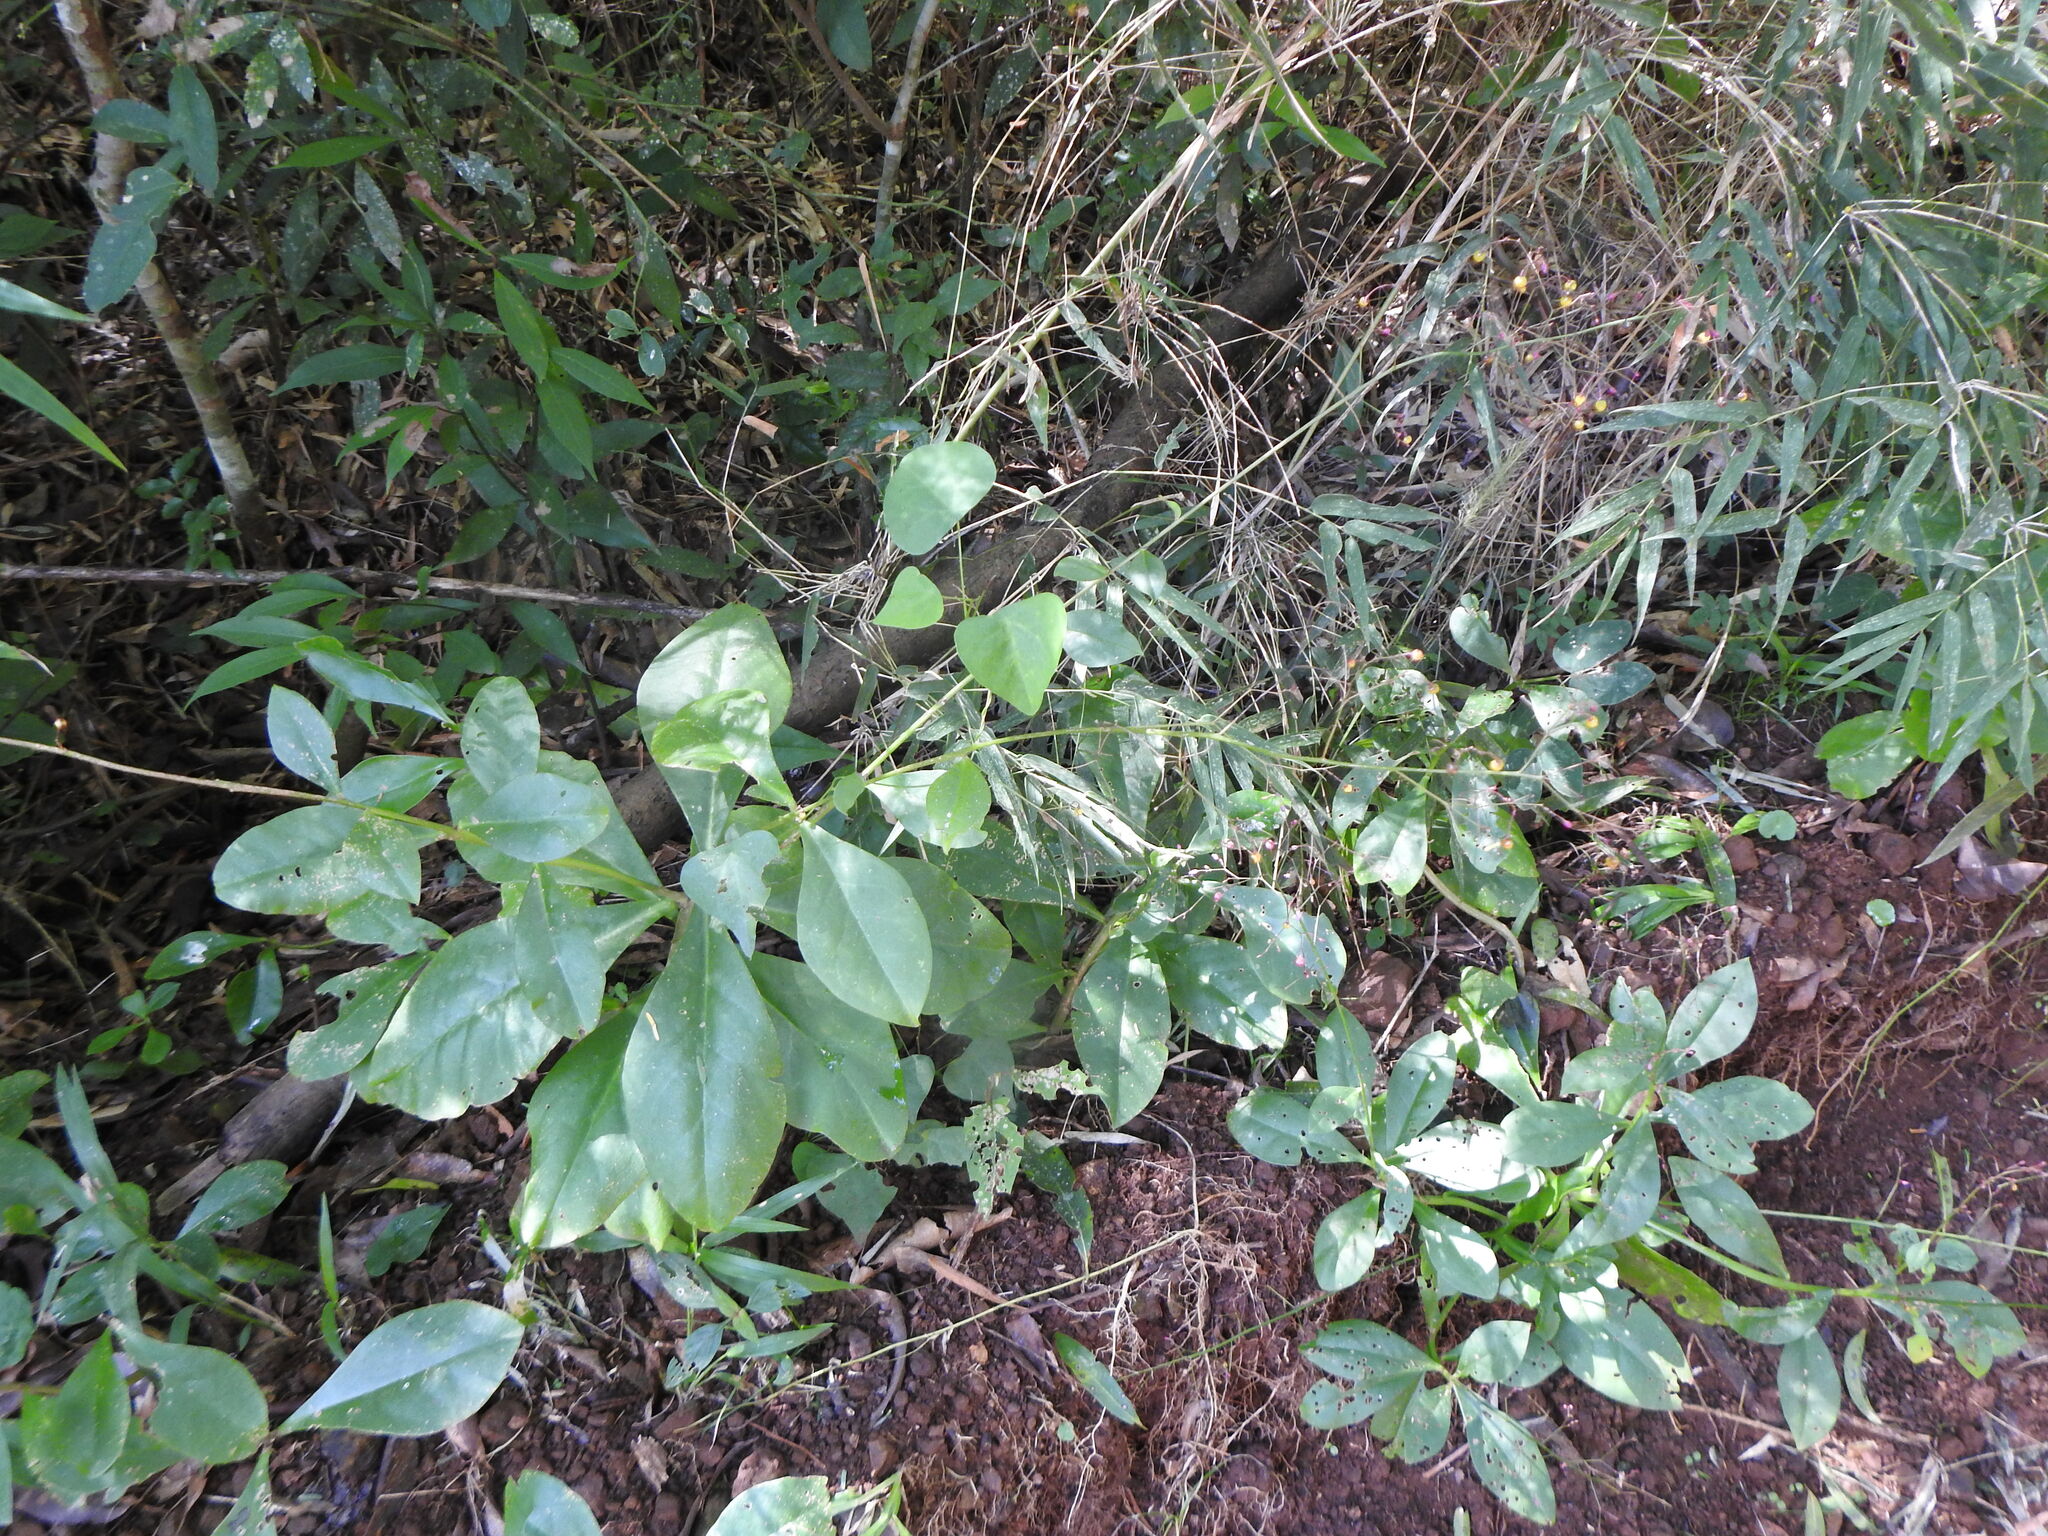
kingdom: Plantae
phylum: Tracheophyta
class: Magnoliopsida
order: Caryophyllales
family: Talinaceae
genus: Talinum
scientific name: Talinum paniculatum
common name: Jewels of opar
